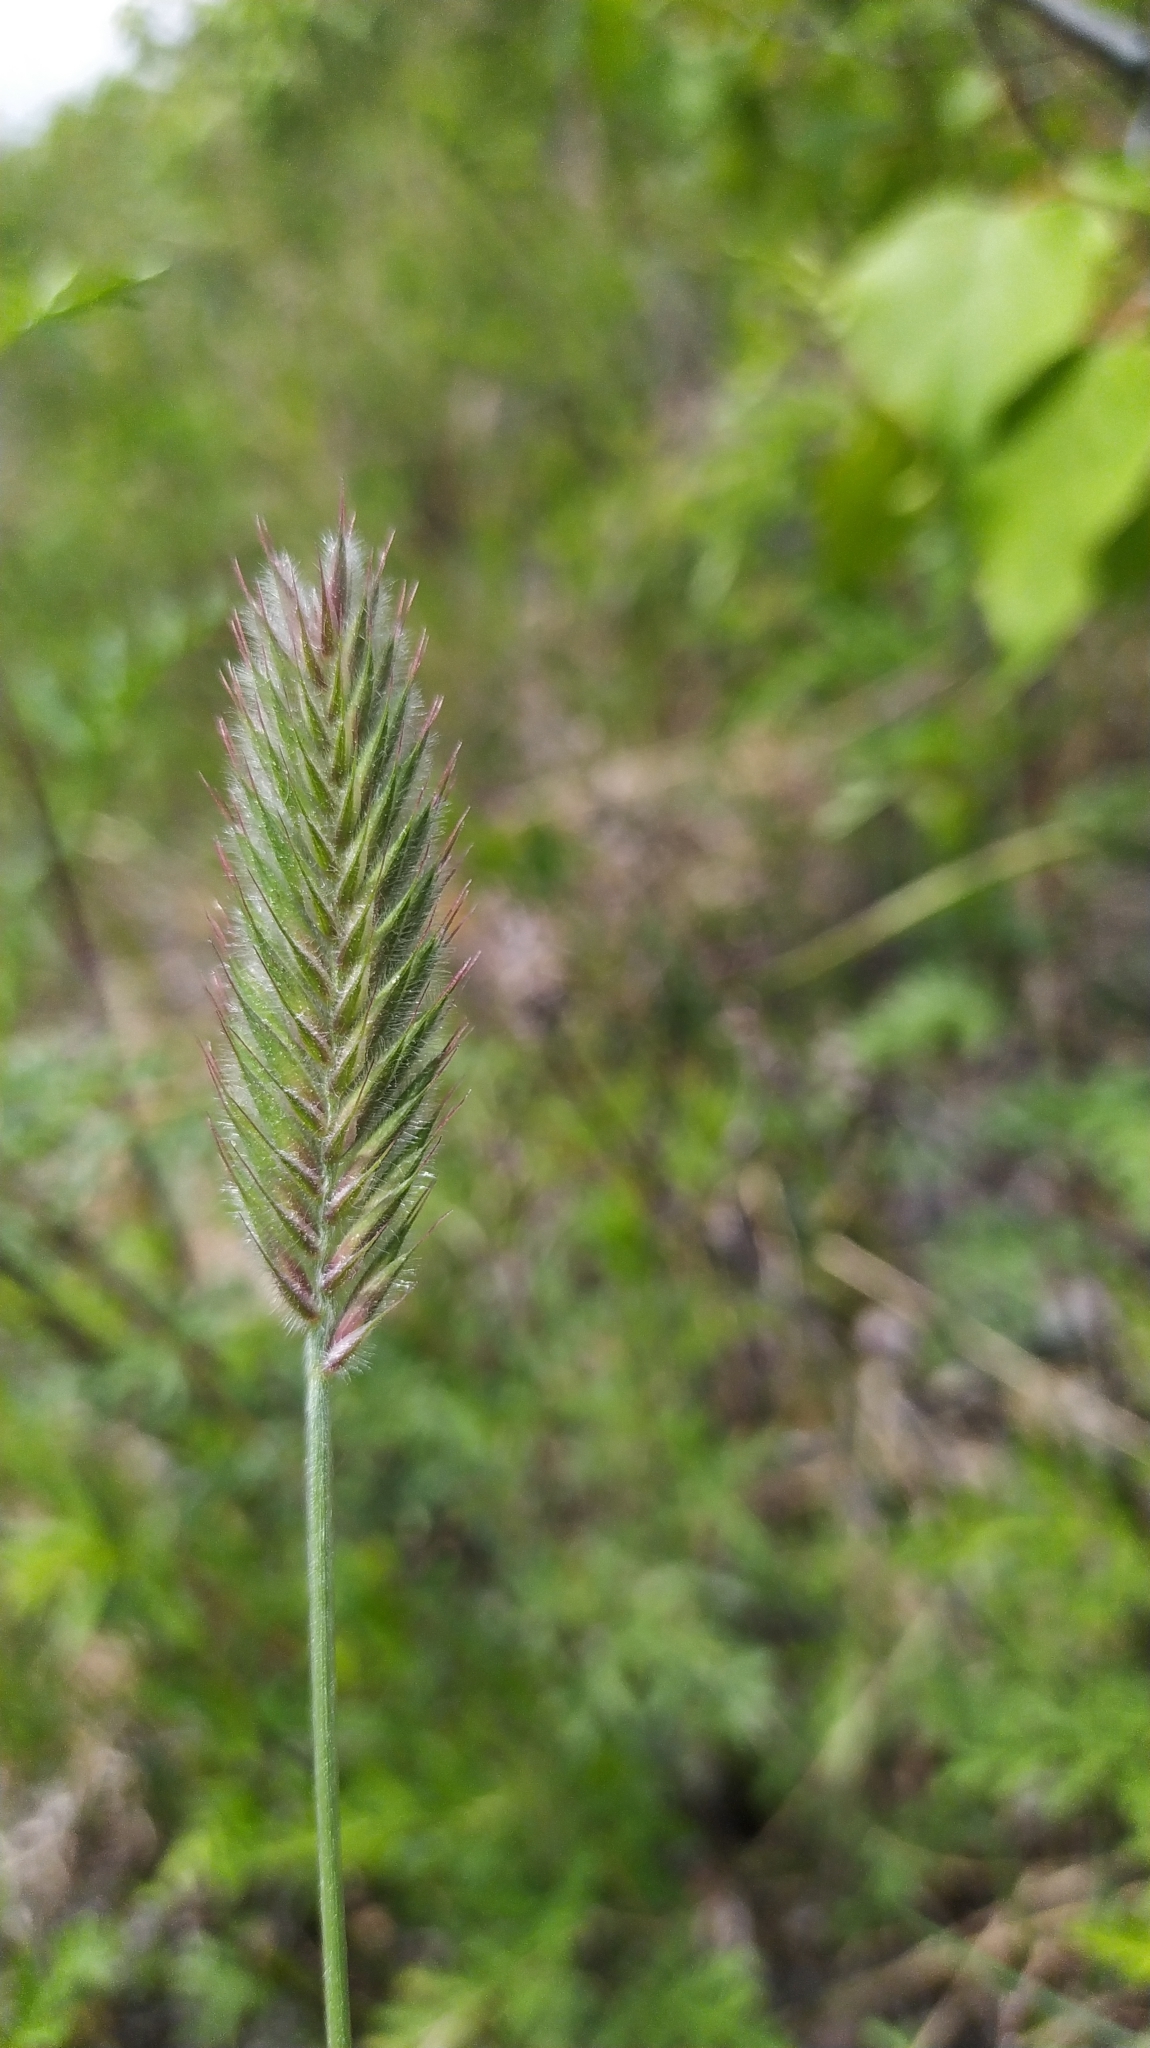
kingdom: Plantae
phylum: Tracheophyta
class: Liliopsida
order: Poales
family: Poaceae
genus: Agropyron
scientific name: Agropyron cristatum
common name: Crested wheatgrass
